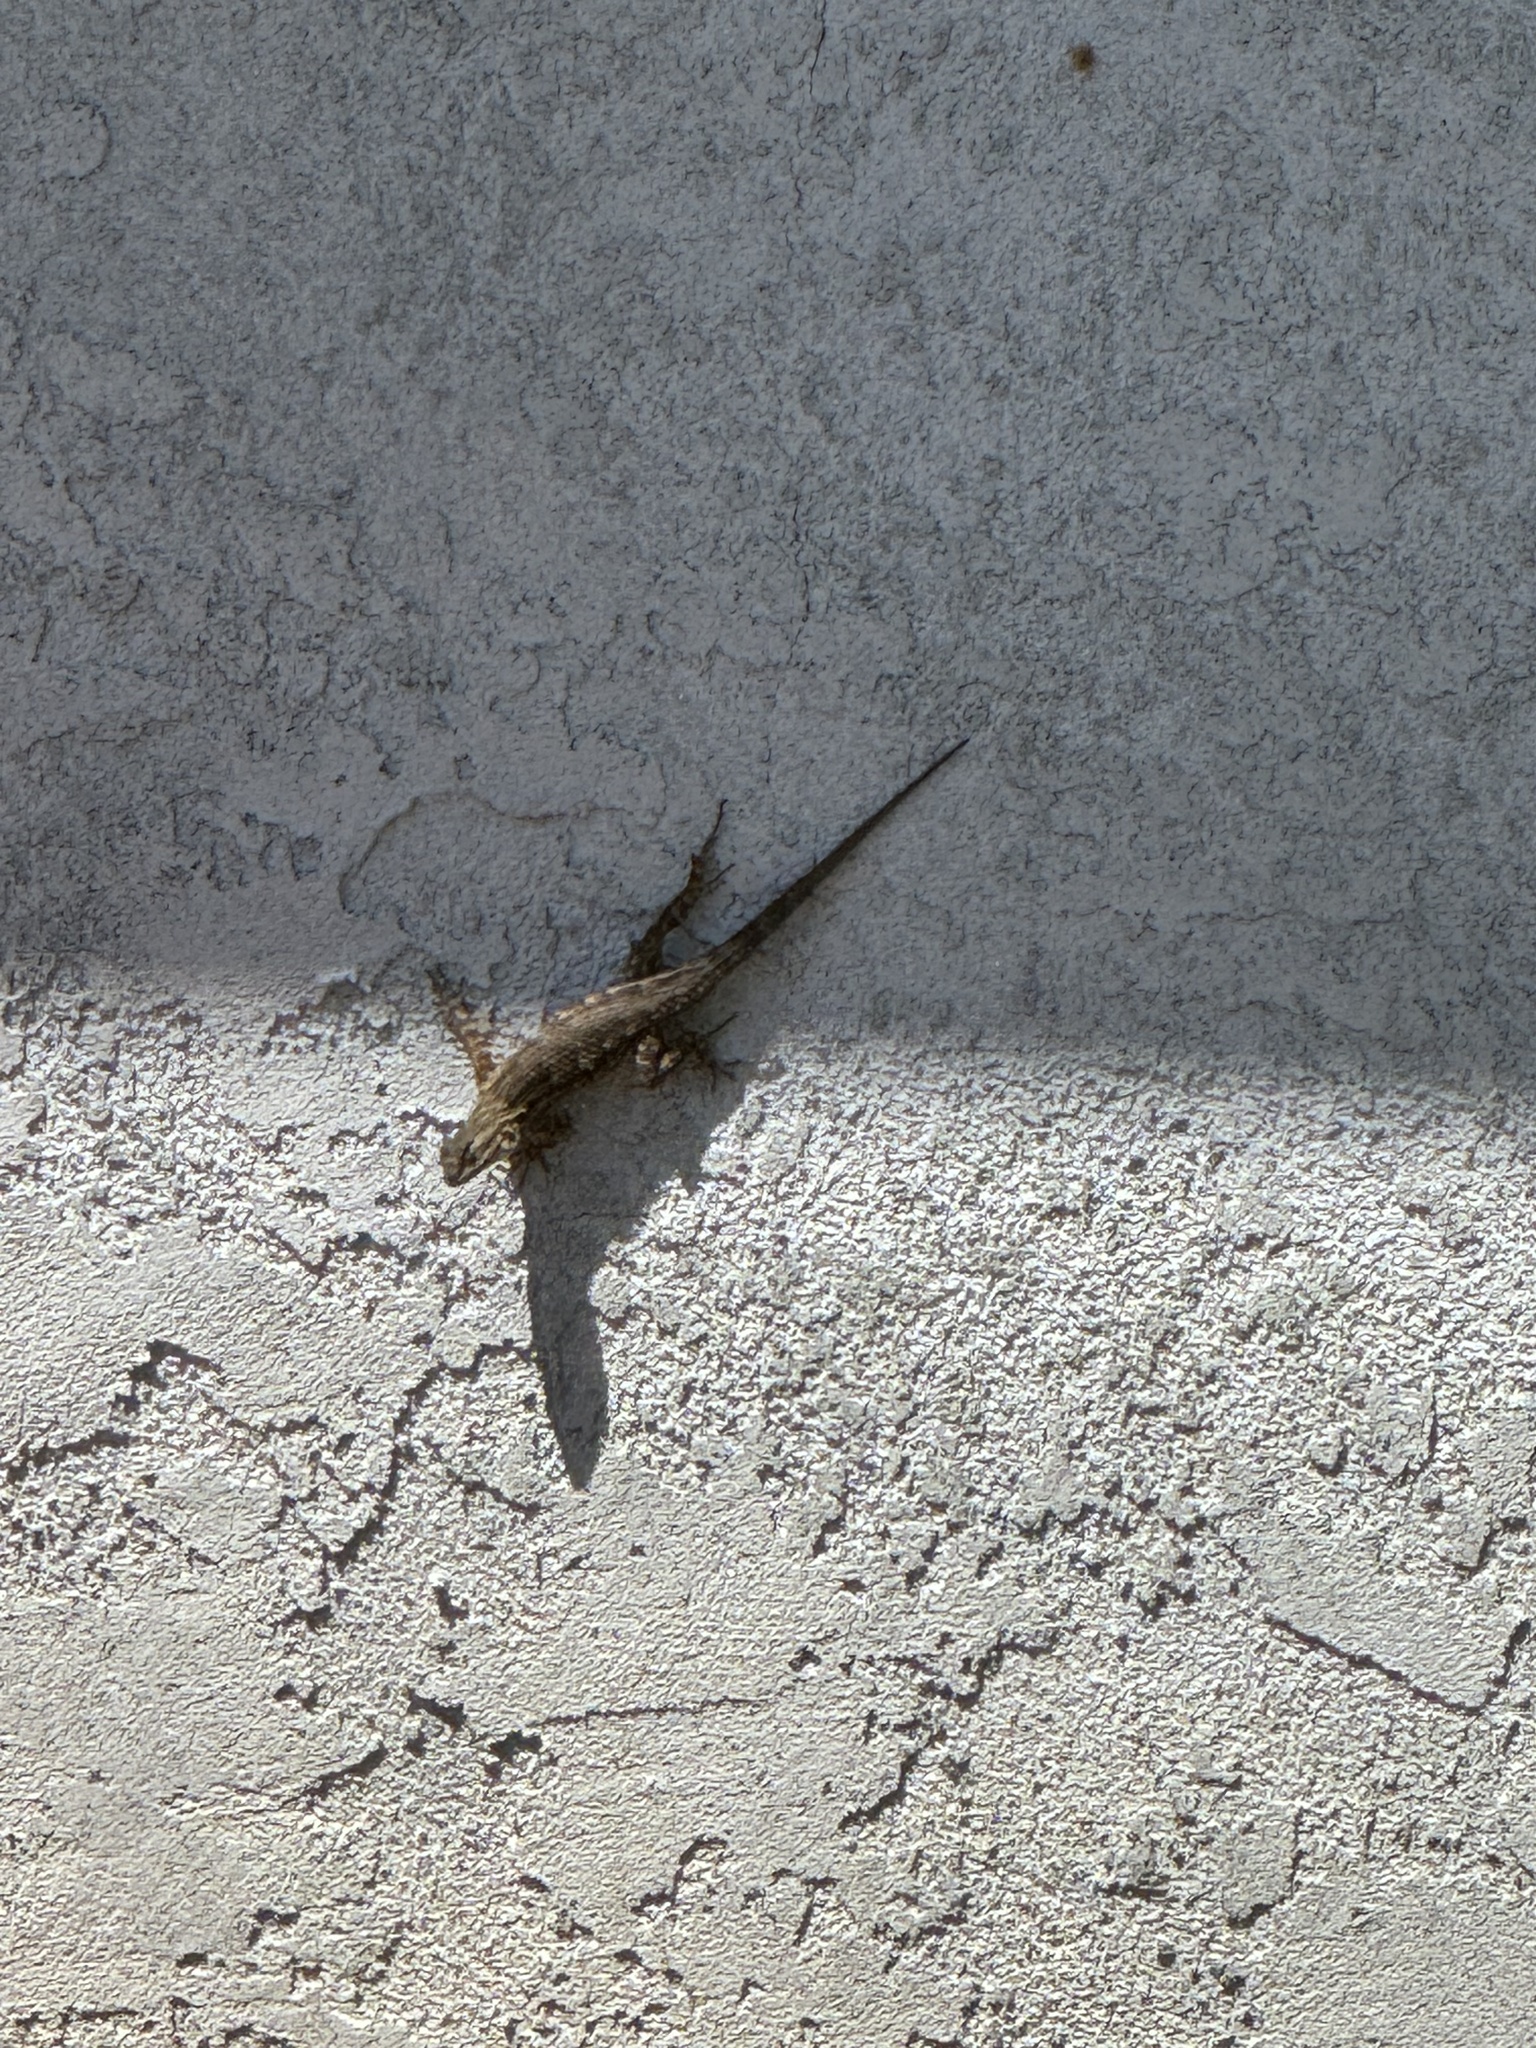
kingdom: Animalia
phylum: Chordata
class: Squamata
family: Phrynosomatidae
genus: Sceloporus
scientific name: Sceloporus occidentalis
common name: Western fence lizard
